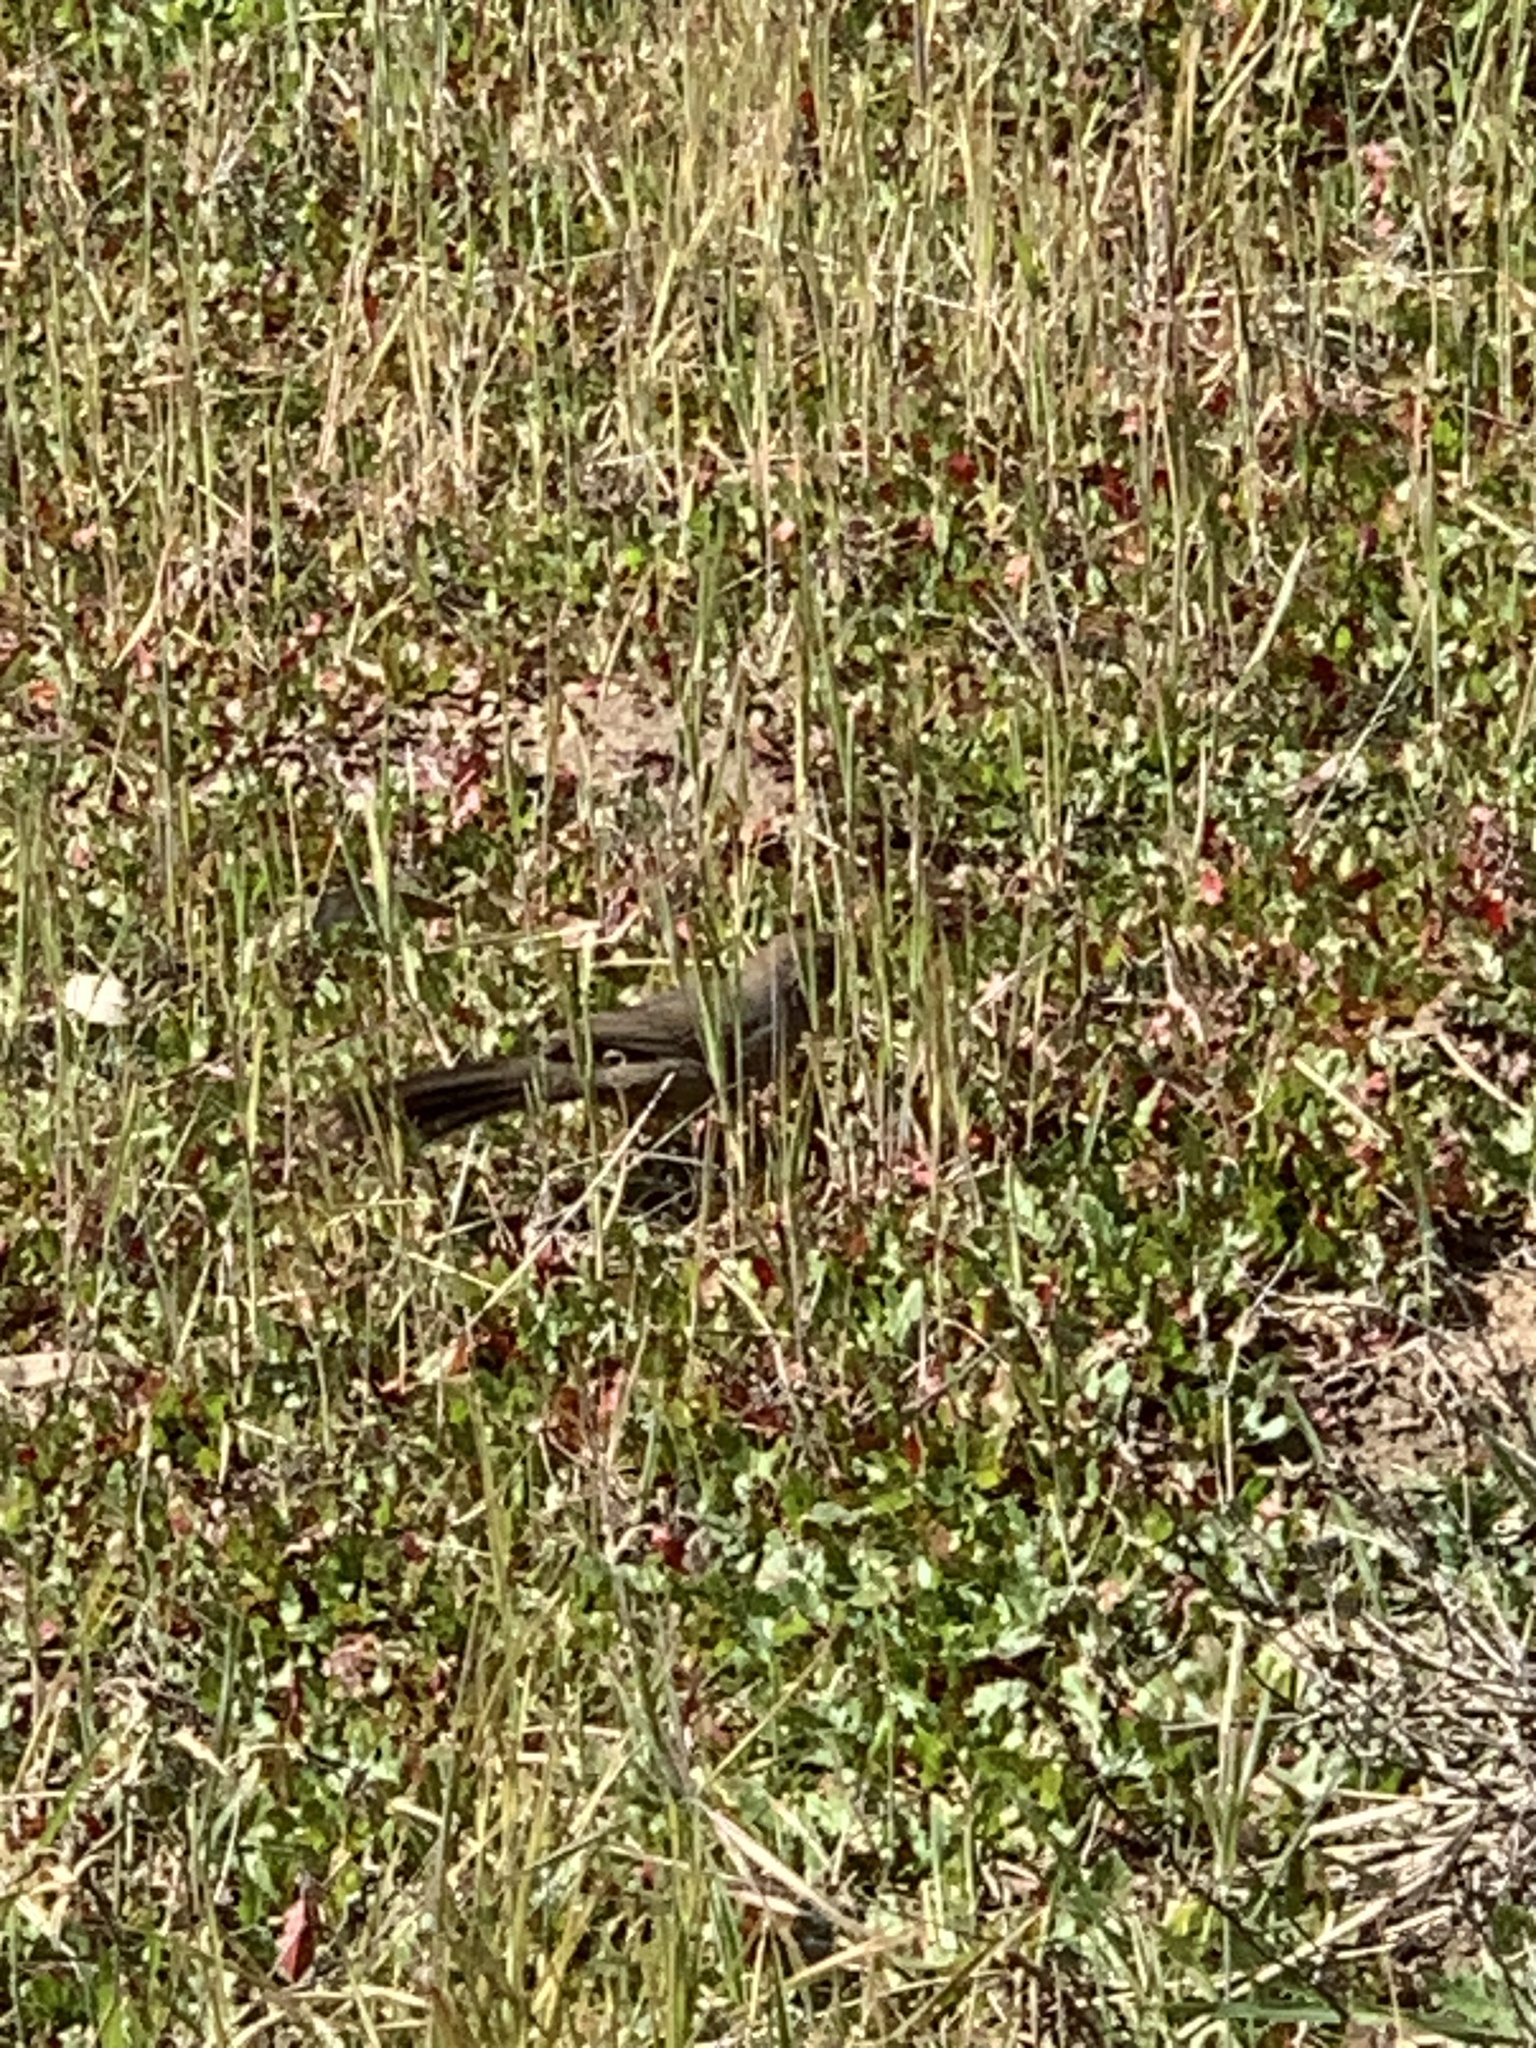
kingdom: Animalia
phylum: Chordata
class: Aves
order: Passeriformes
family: Passerellidae
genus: Melozone
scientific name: Melozone crissalis
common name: California towhee
